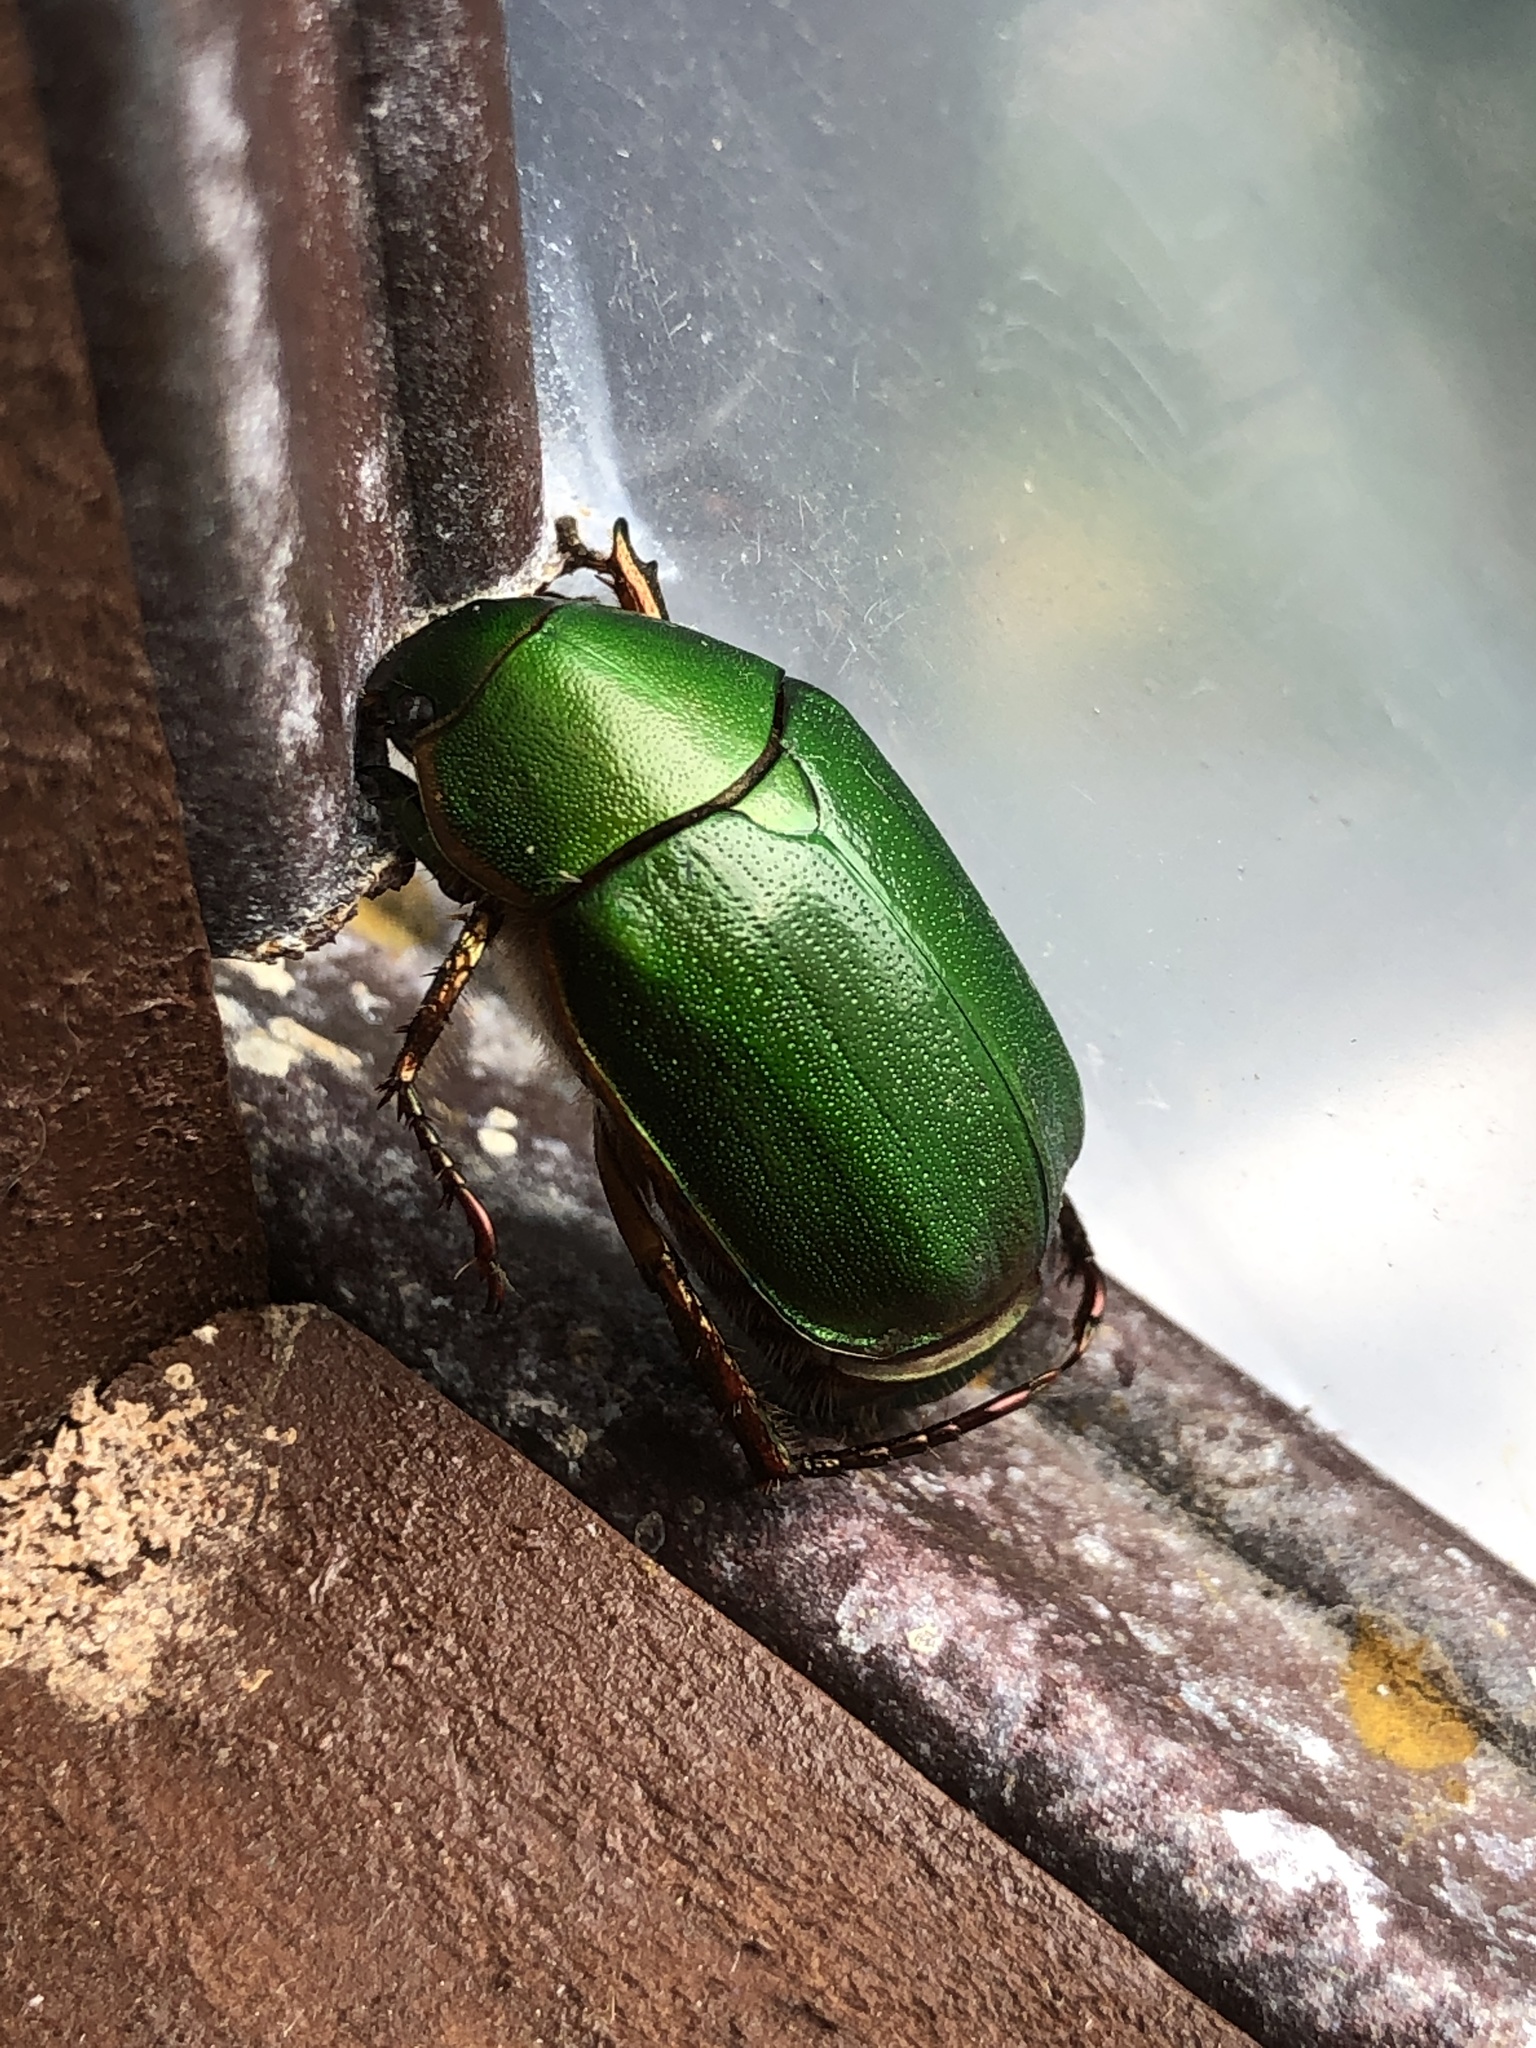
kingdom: Animalia
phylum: Arthropoda
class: Insecta
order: Coleoptera
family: Scarabaeidae
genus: Anomala
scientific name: Anomala xanthopleura
